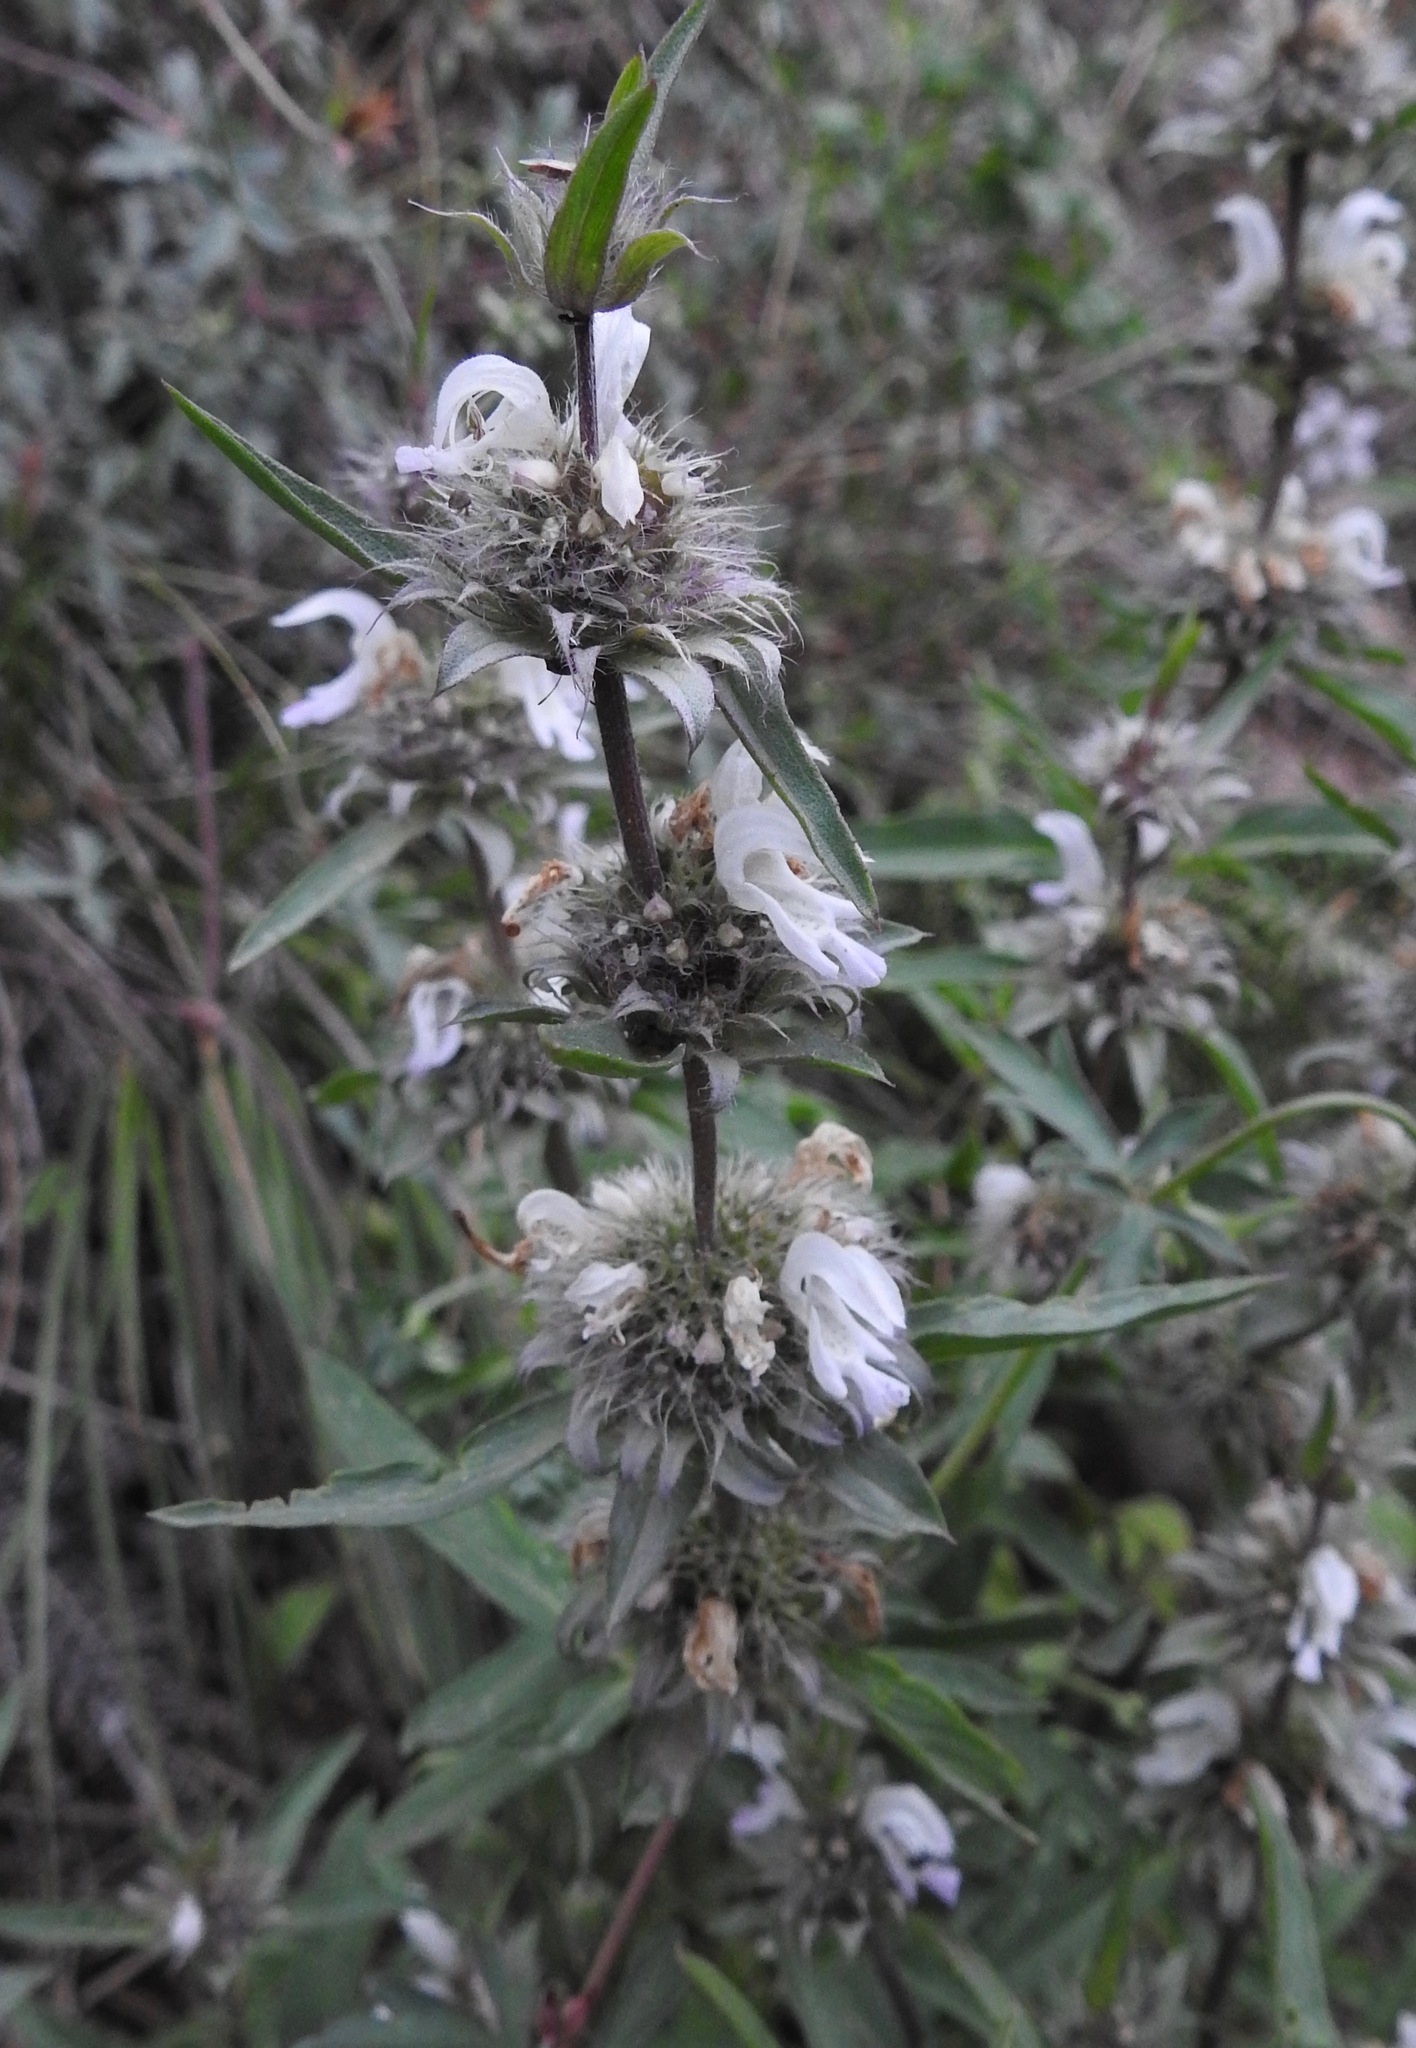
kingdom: Plantae
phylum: Tracheophyta
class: Magnoliopsida
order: Lamiales
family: Lamiaceae
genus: Monarda
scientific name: Monarda citriodora
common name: Lemon beebalm
